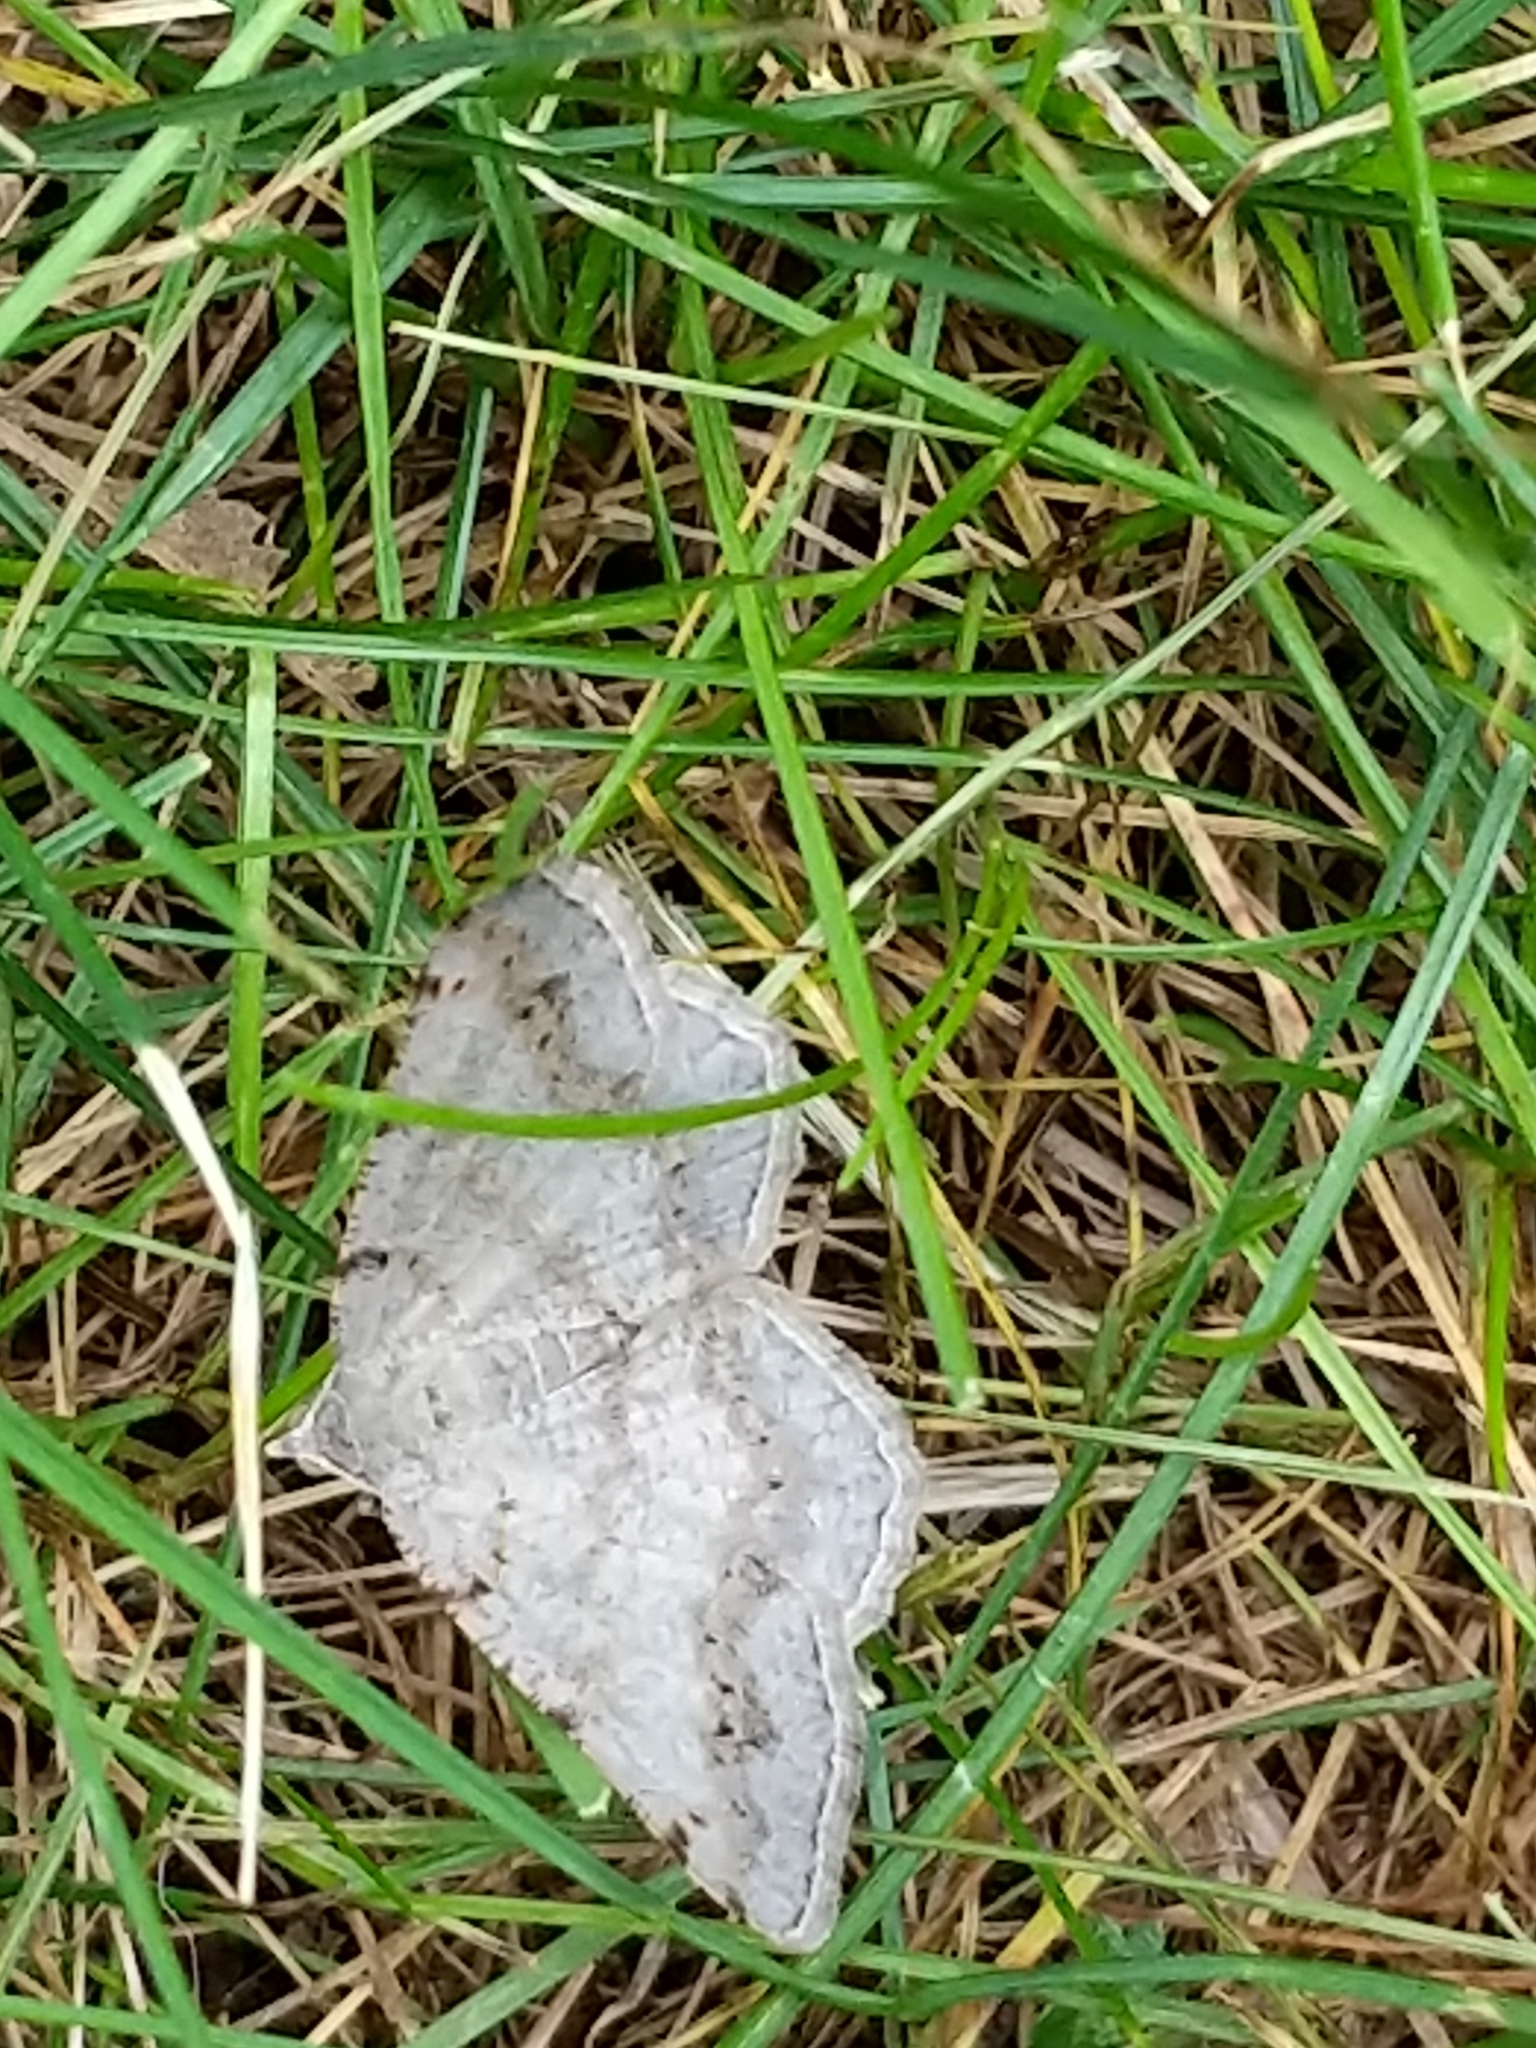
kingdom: Animalia
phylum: Arthropoda
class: Insecta
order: Lepidoptera
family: Geometridae
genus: Digrammia
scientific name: Digrammia ocellinata
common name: Faint-spotted angle
